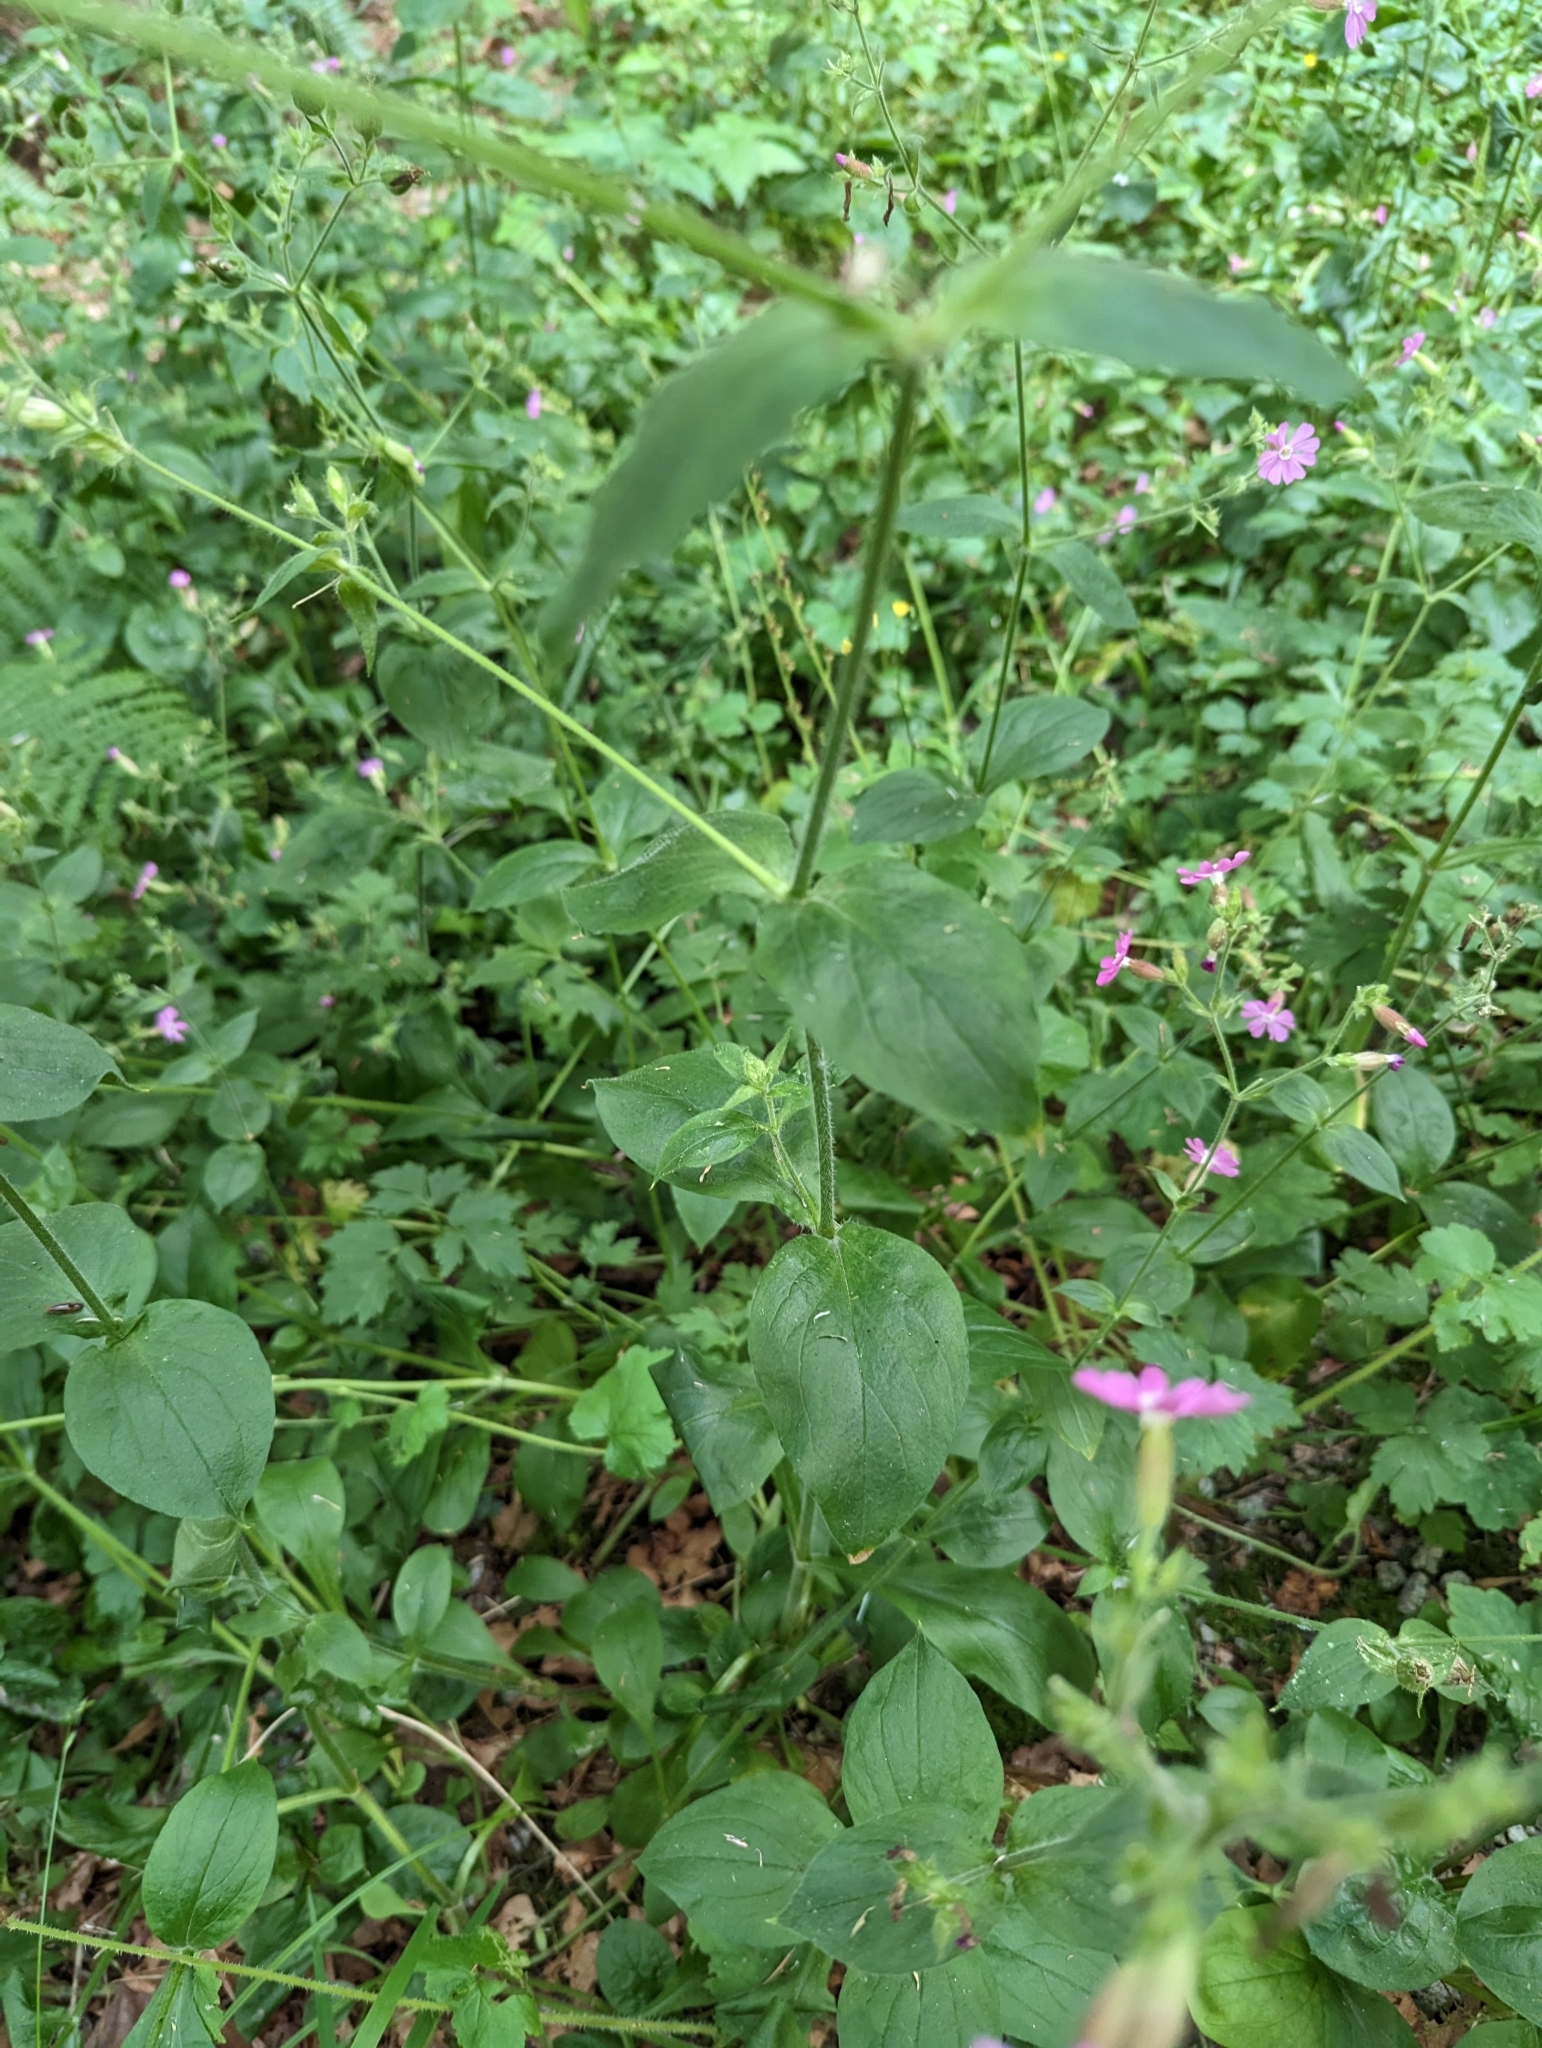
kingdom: Plantae
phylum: Tracheophyta
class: Magnoliopsida
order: Caryophyllales
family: Caryophyllaceae
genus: Silene
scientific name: Silene dioica
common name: Red campion
